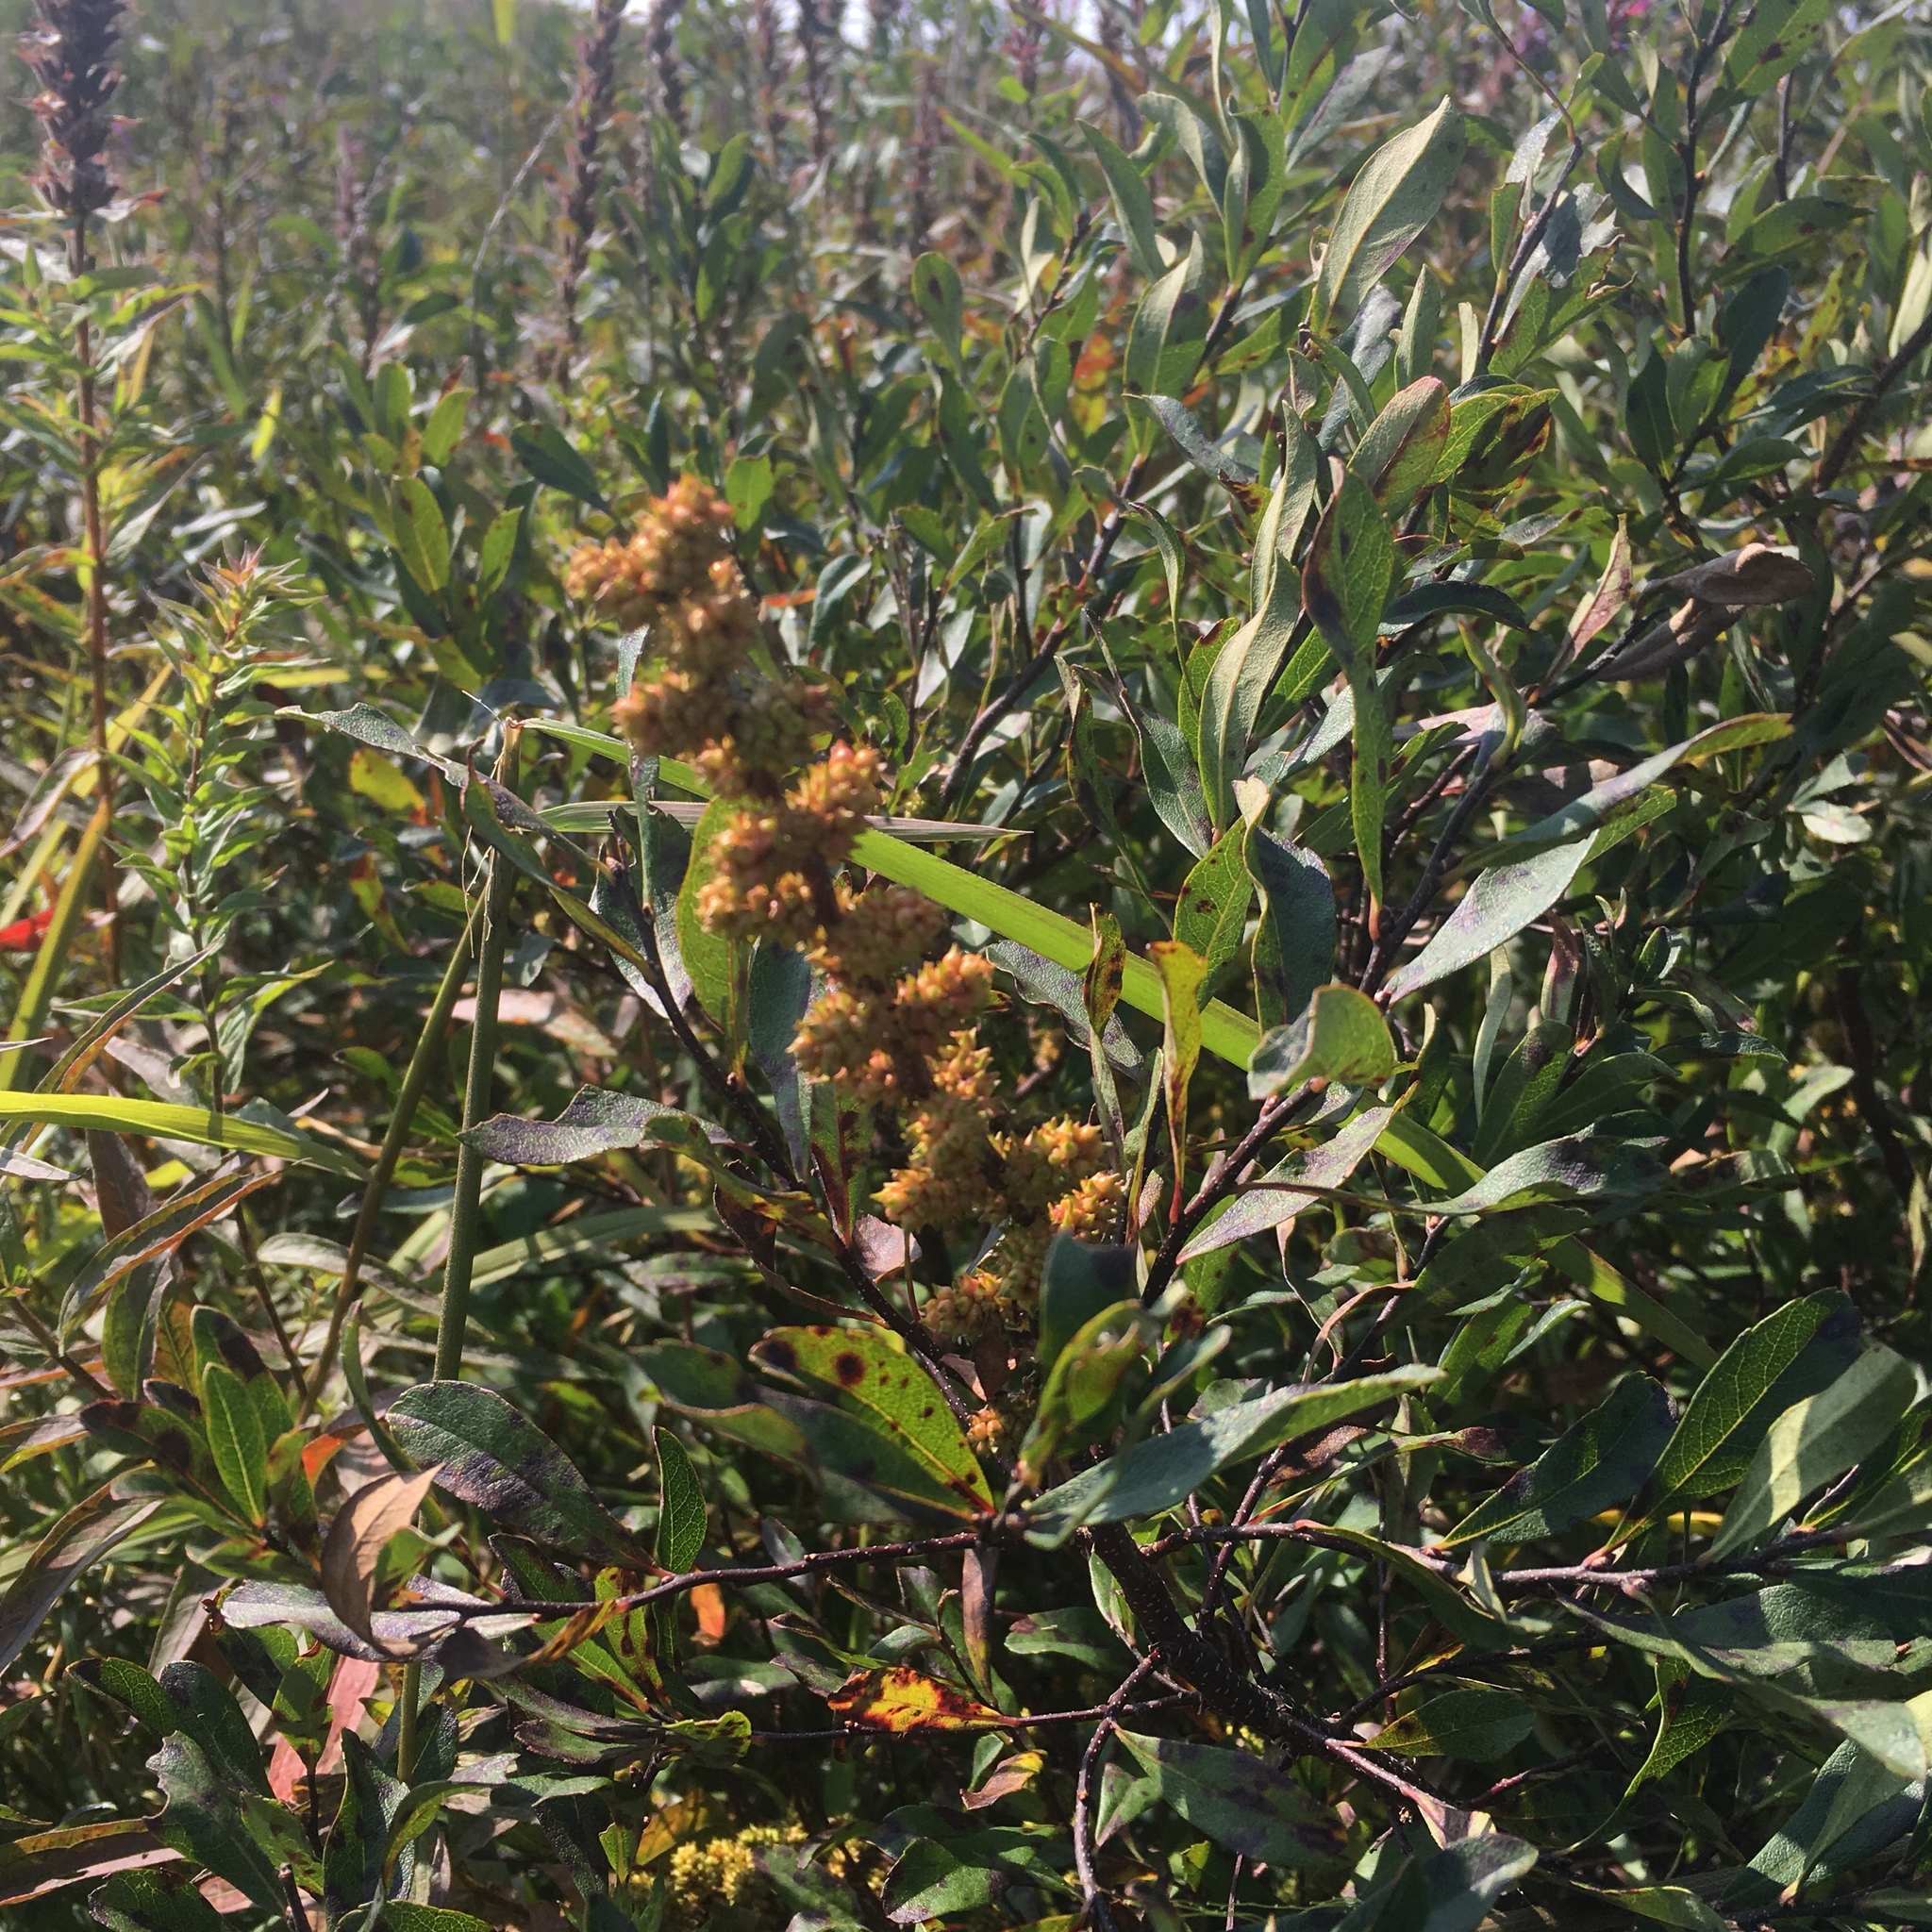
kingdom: Plantae
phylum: Tracheophyta
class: Magnoliopsida
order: Fagales
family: Myricaceae
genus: Myrica
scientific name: Myrica gale
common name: Sweet gale
